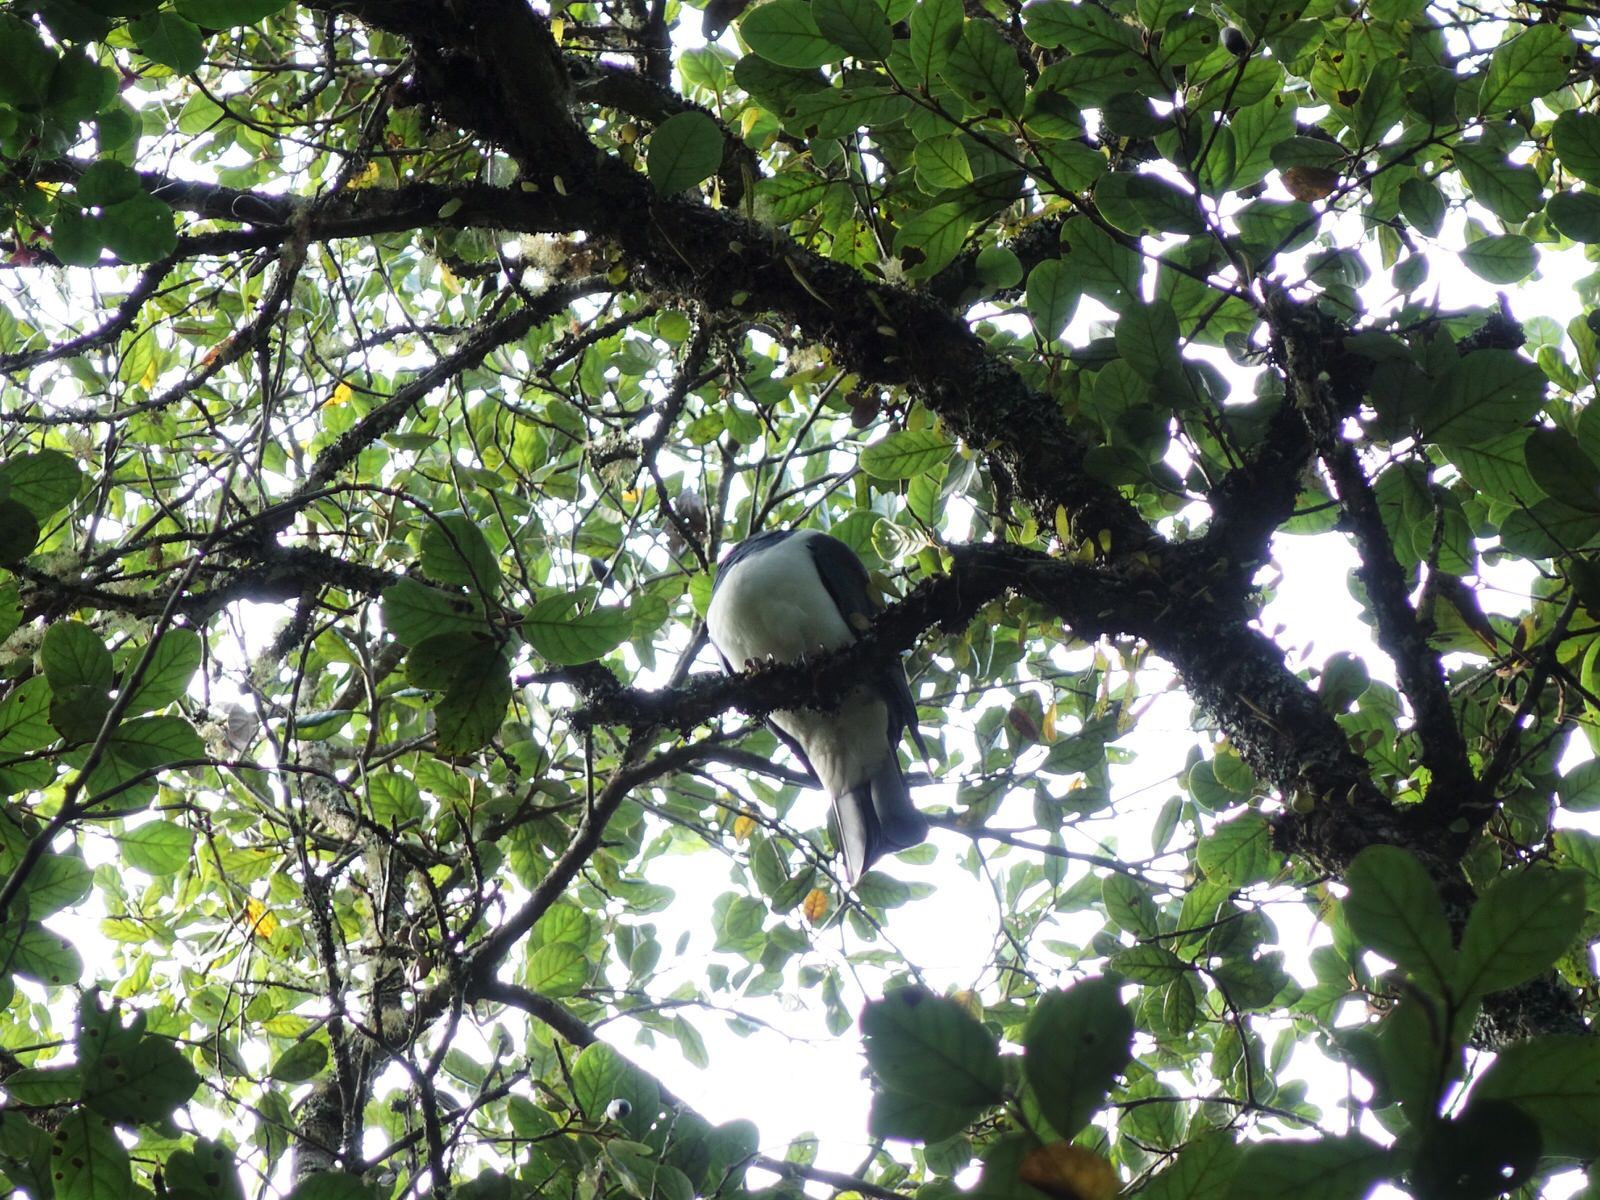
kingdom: Animalia
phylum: Chordata
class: Aves
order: Columbiformes
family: Columbidae
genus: Hemiphaga
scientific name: Hemiphaga novaeseelandiae
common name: New zealand pigeon
